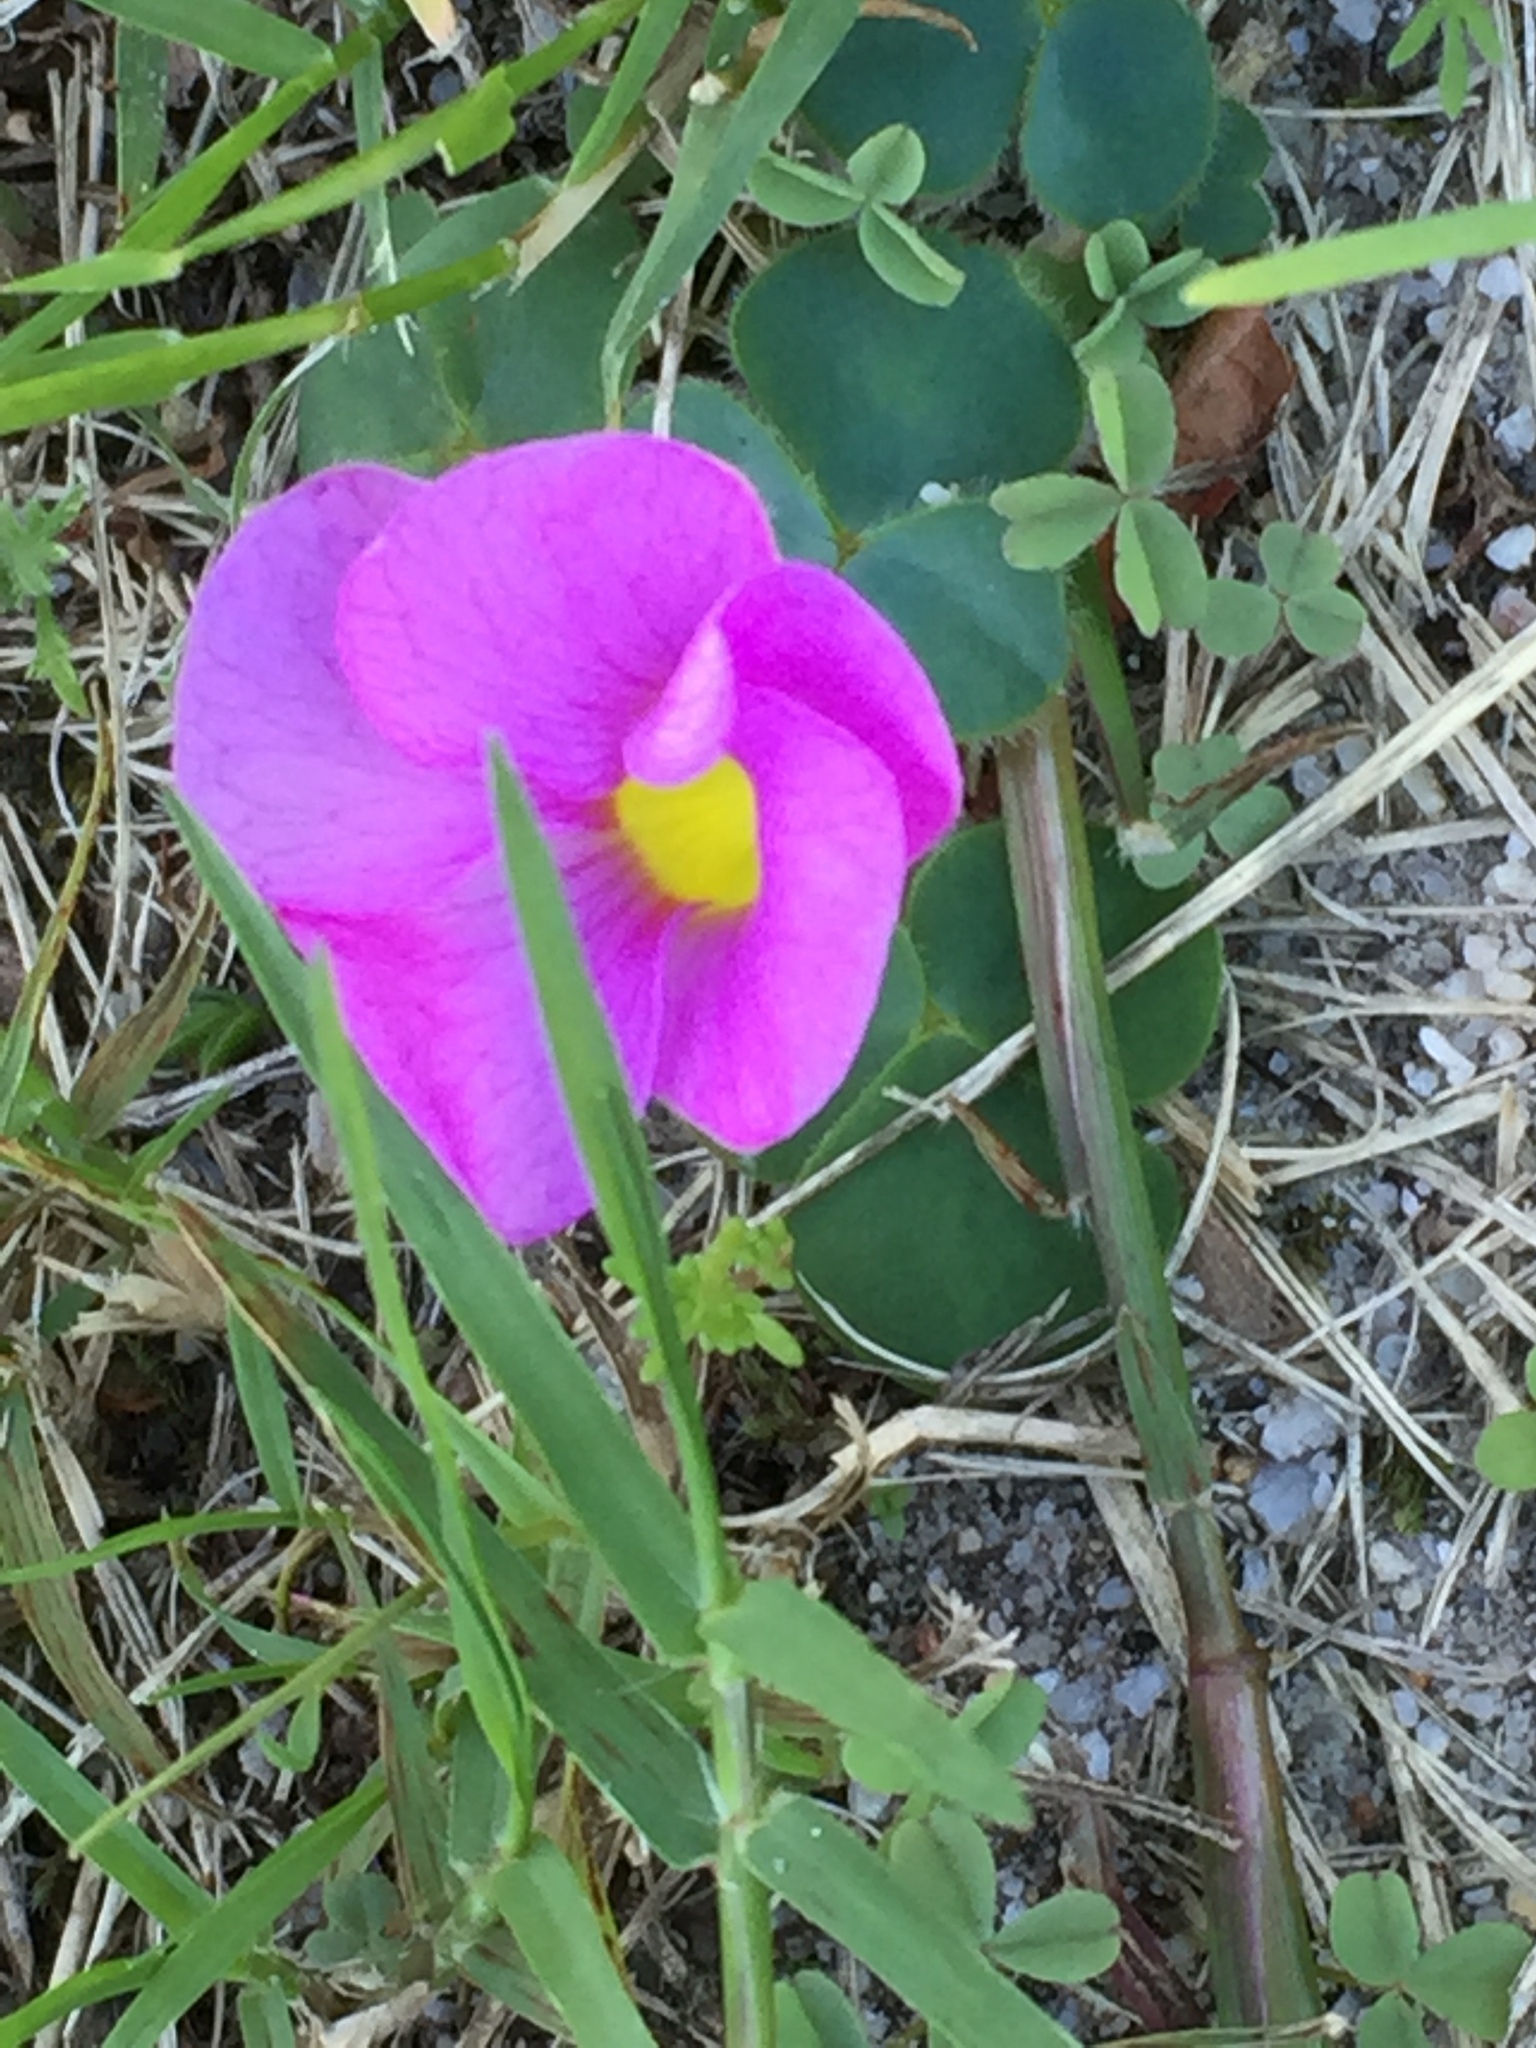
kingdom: Plantae
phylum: Tracheophyta
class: Magnoliopsida
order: Oxalidales
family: Oxalidaceae
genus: Oxalis
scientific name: Oxalis purpurea
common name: Purple woodsorrel
